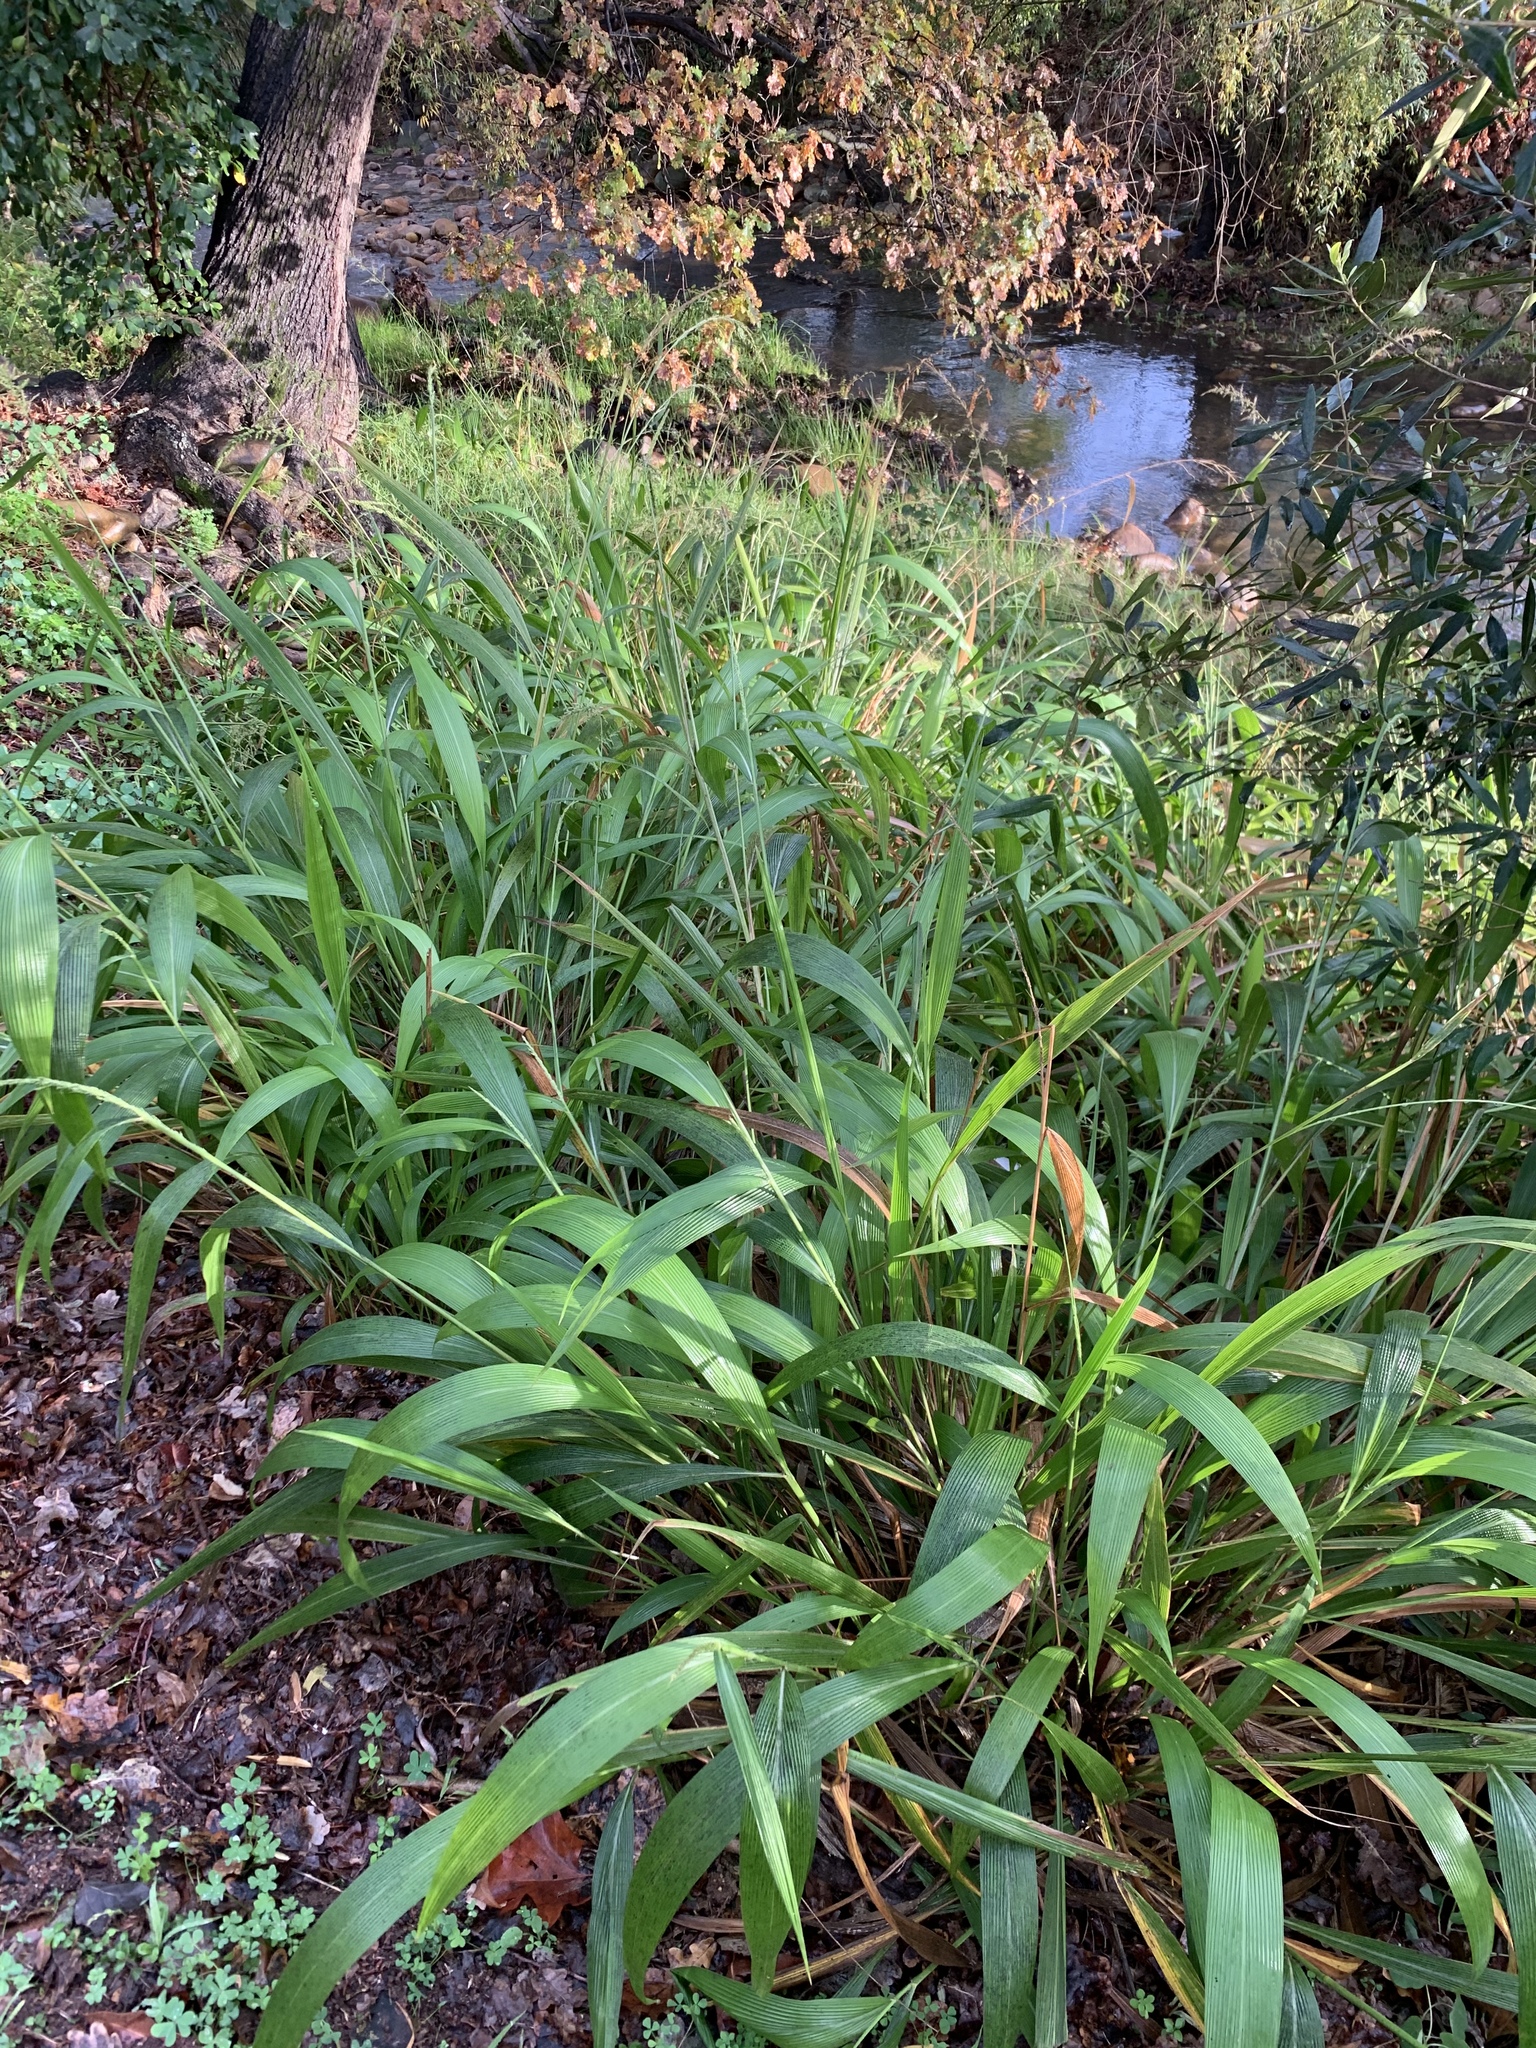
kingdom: Plantae
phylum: Tracheophyta
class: Liliopsida
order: Poales
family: Poaceae
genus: Setaria
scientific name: Setaria megaphylla
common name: Bigleaf bristlegrass
